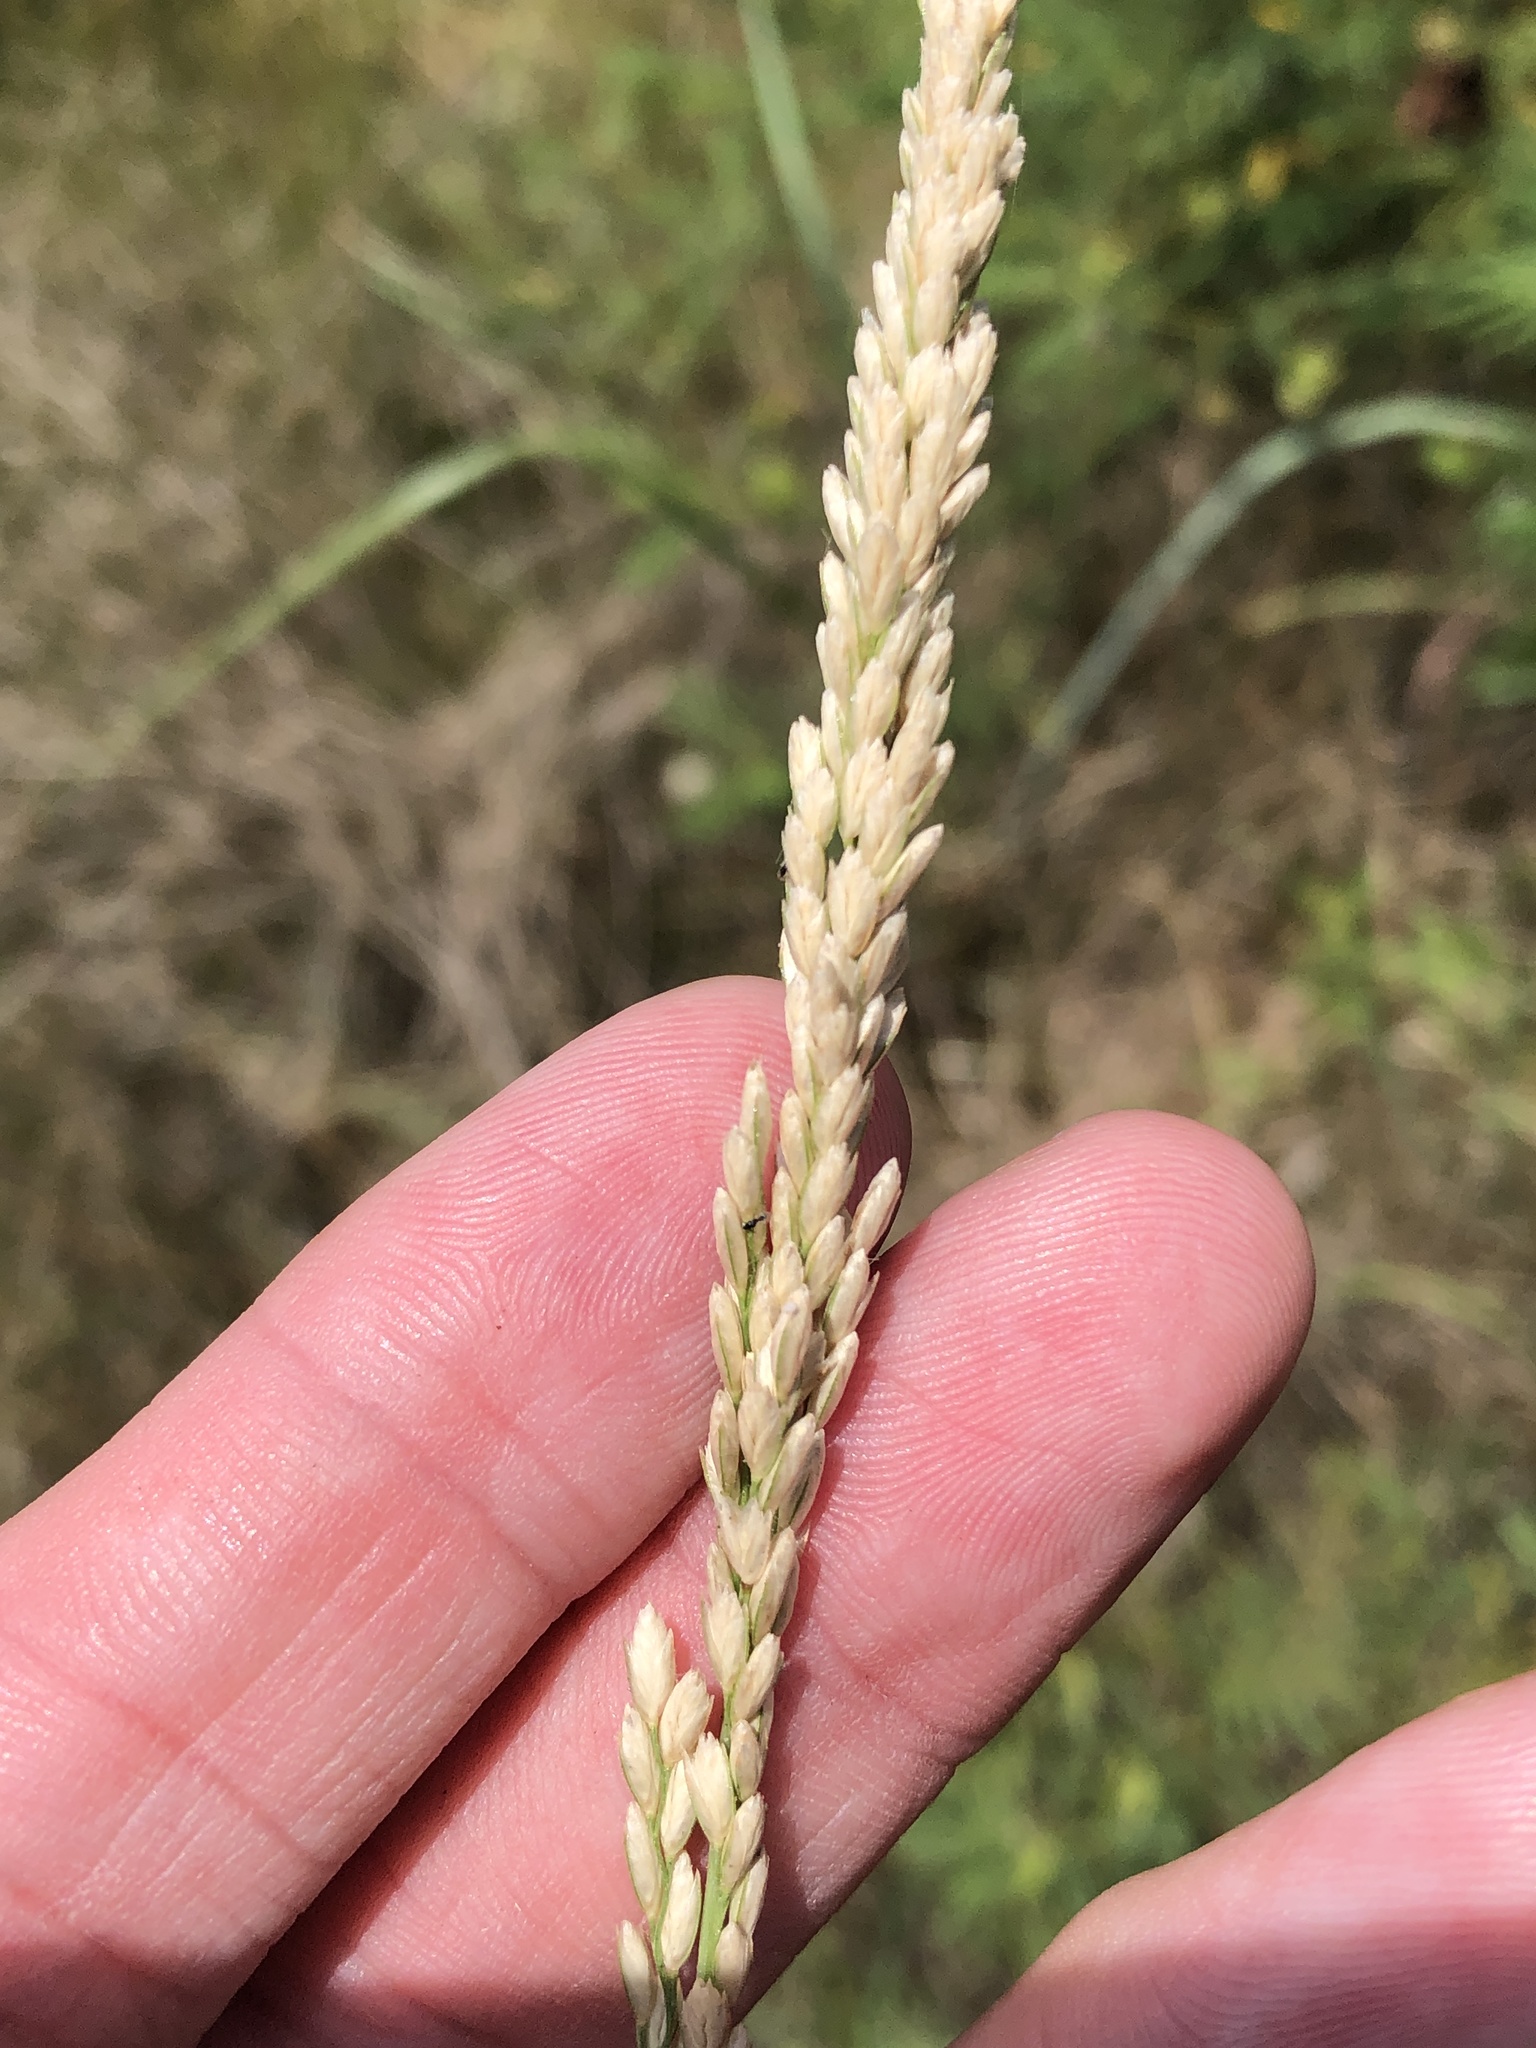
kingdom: Plantae
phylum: Tracheophyta
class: Liliopsida
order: Poales
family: Poaceae
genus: Tridens
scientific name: Tridens albescens
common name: White tridens
